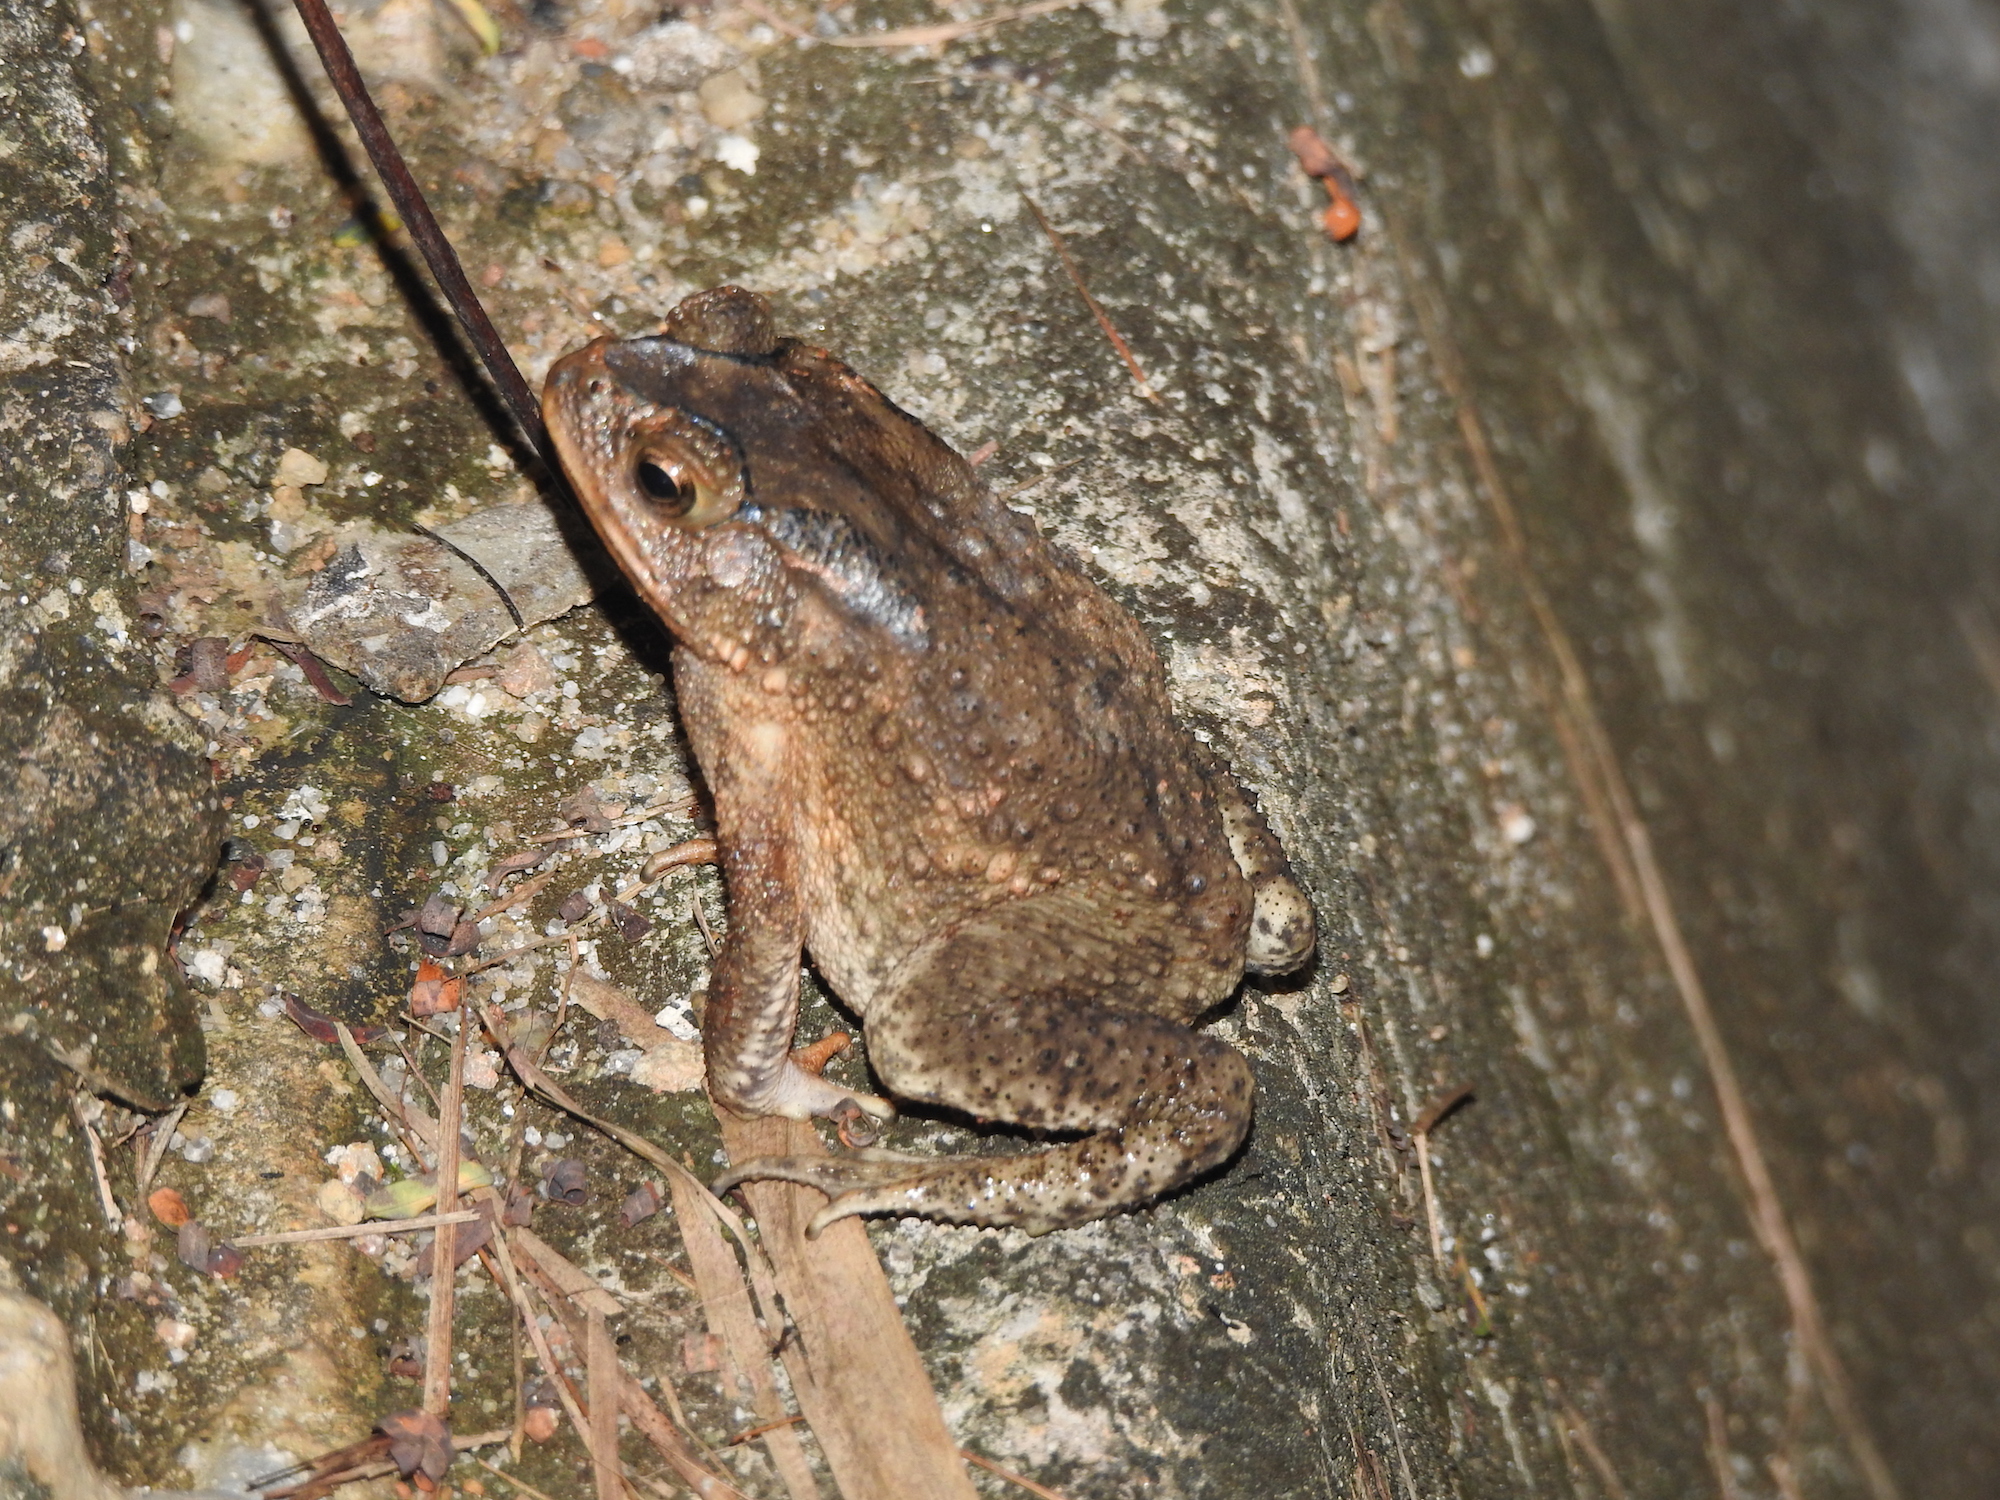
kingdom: Animalia
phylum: Chordata
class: Amphibia
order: Anura
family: Bufonidae
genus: Duttaphrynus
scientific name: Duttaphrynus melanostictus
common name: Common sunda toad
